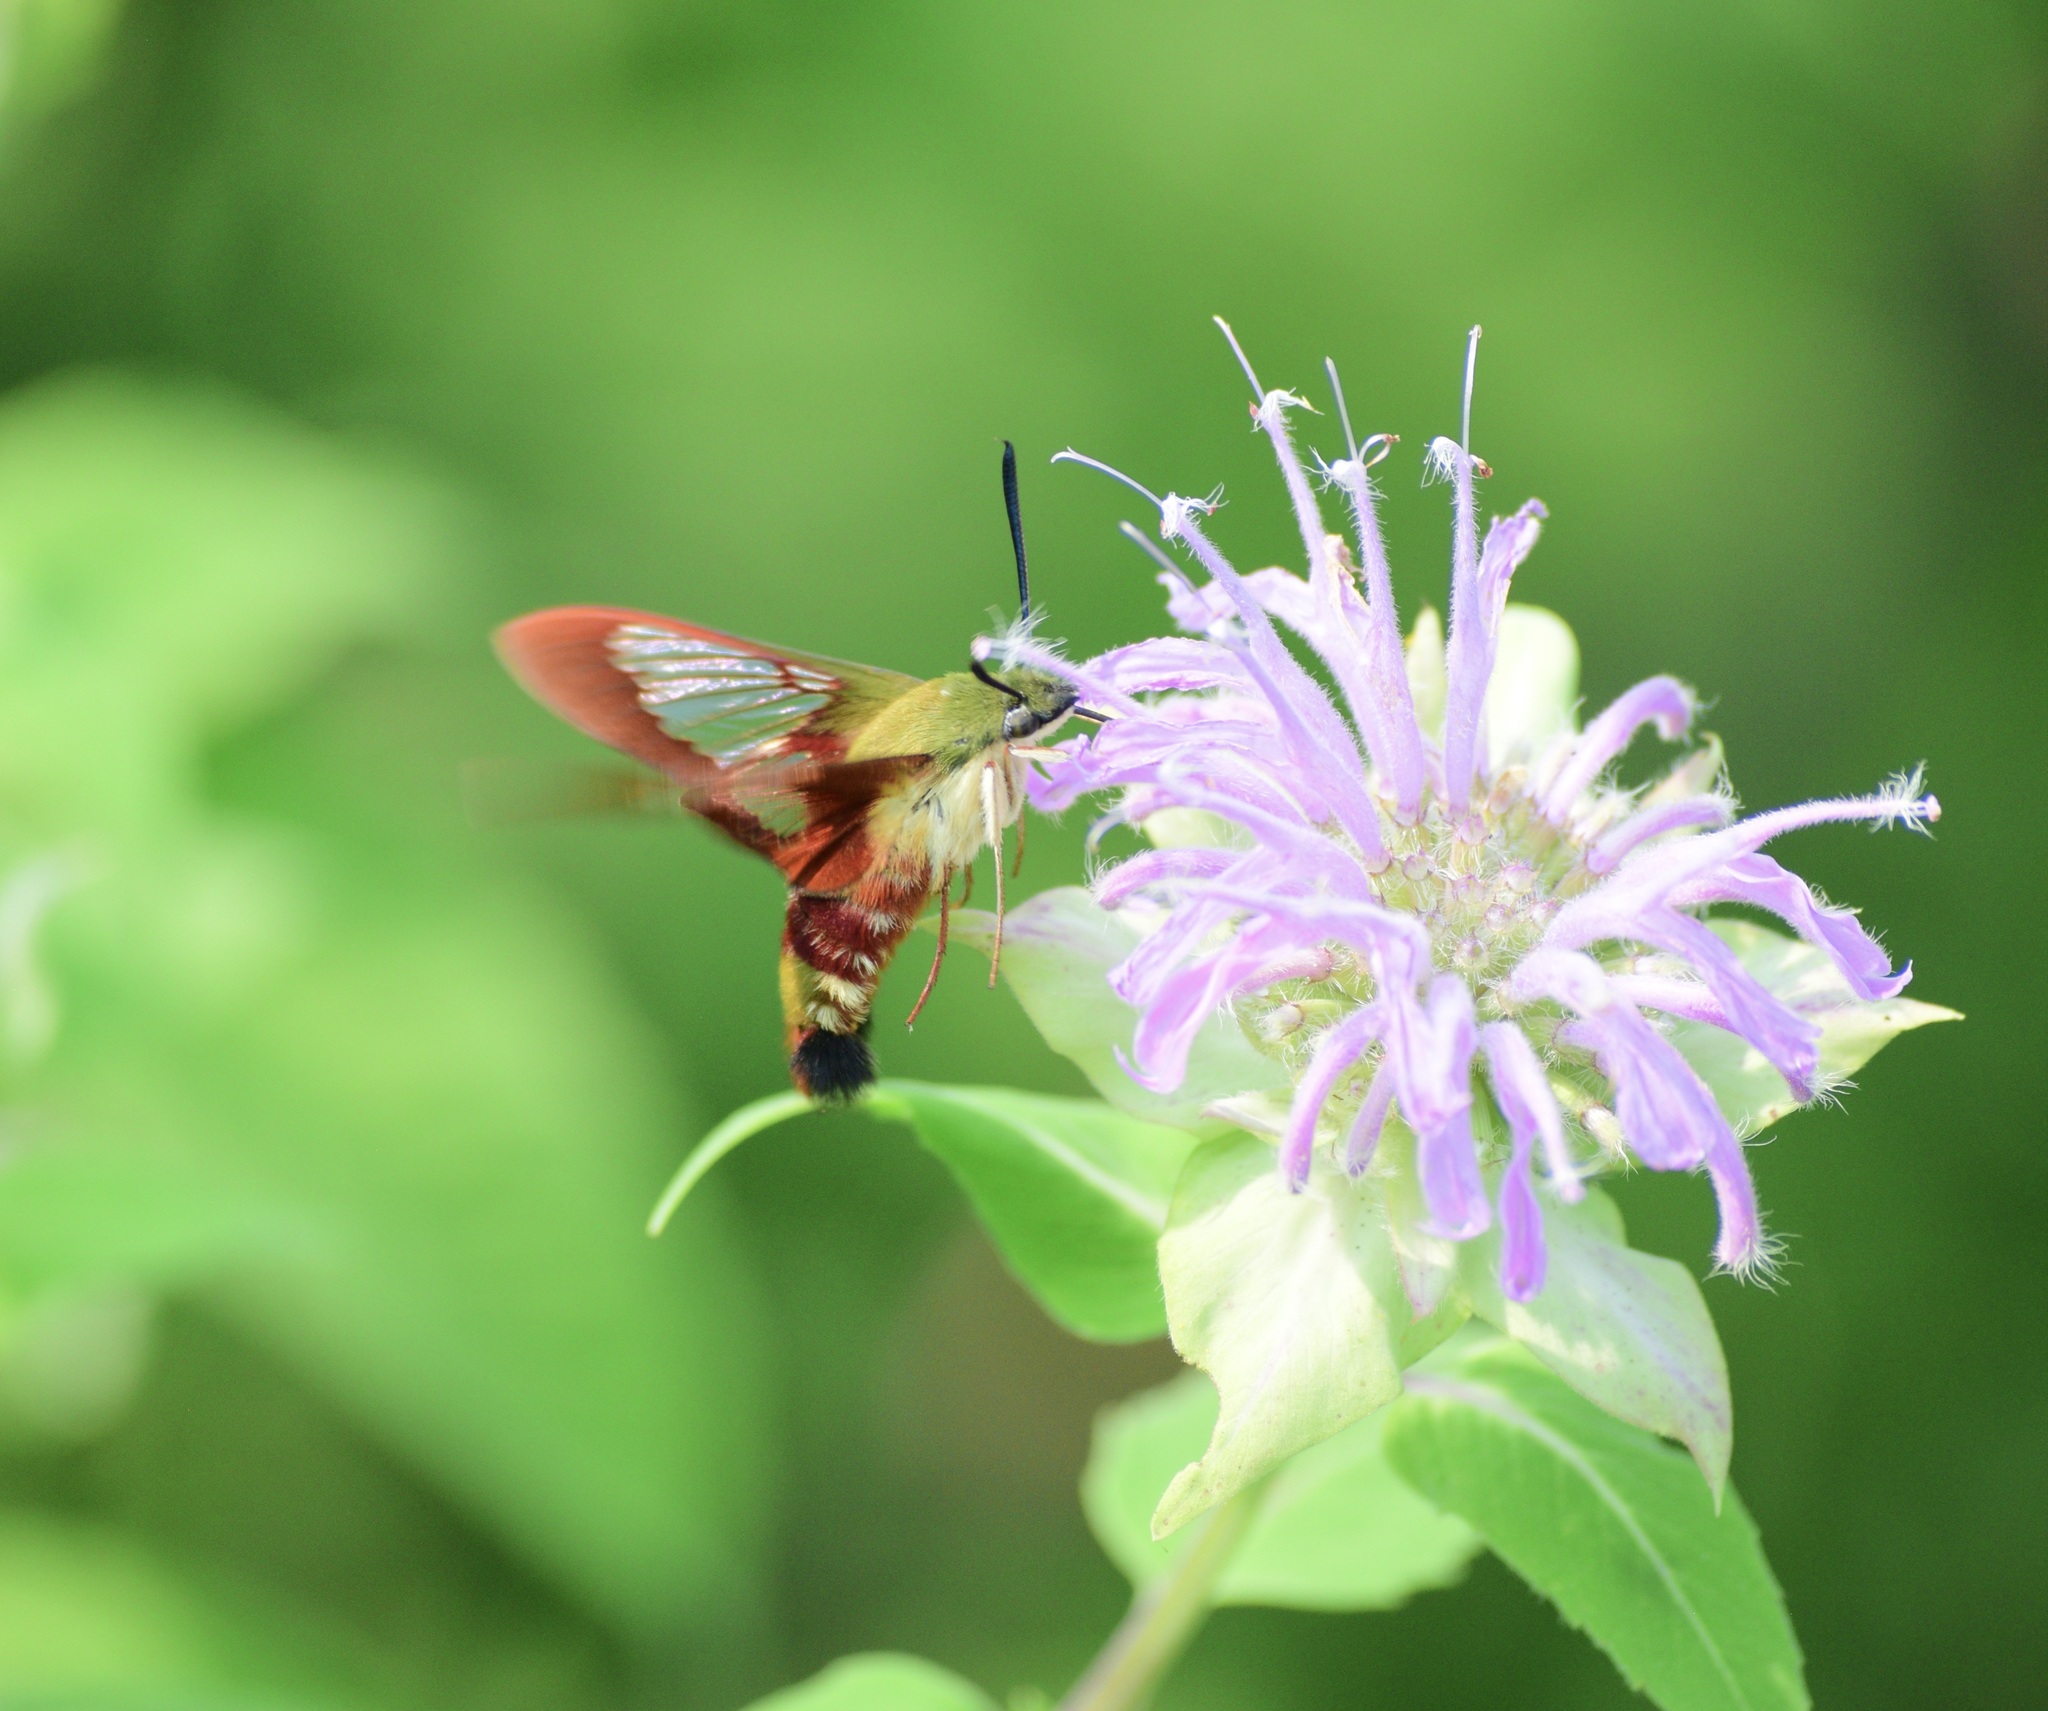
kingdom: Animalia
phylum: Arthropoda
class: Insecta
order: Lepidoptera
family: Sphingidae
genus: Hemaris
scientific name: Hemaris thysbe
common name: Common clear-wing
